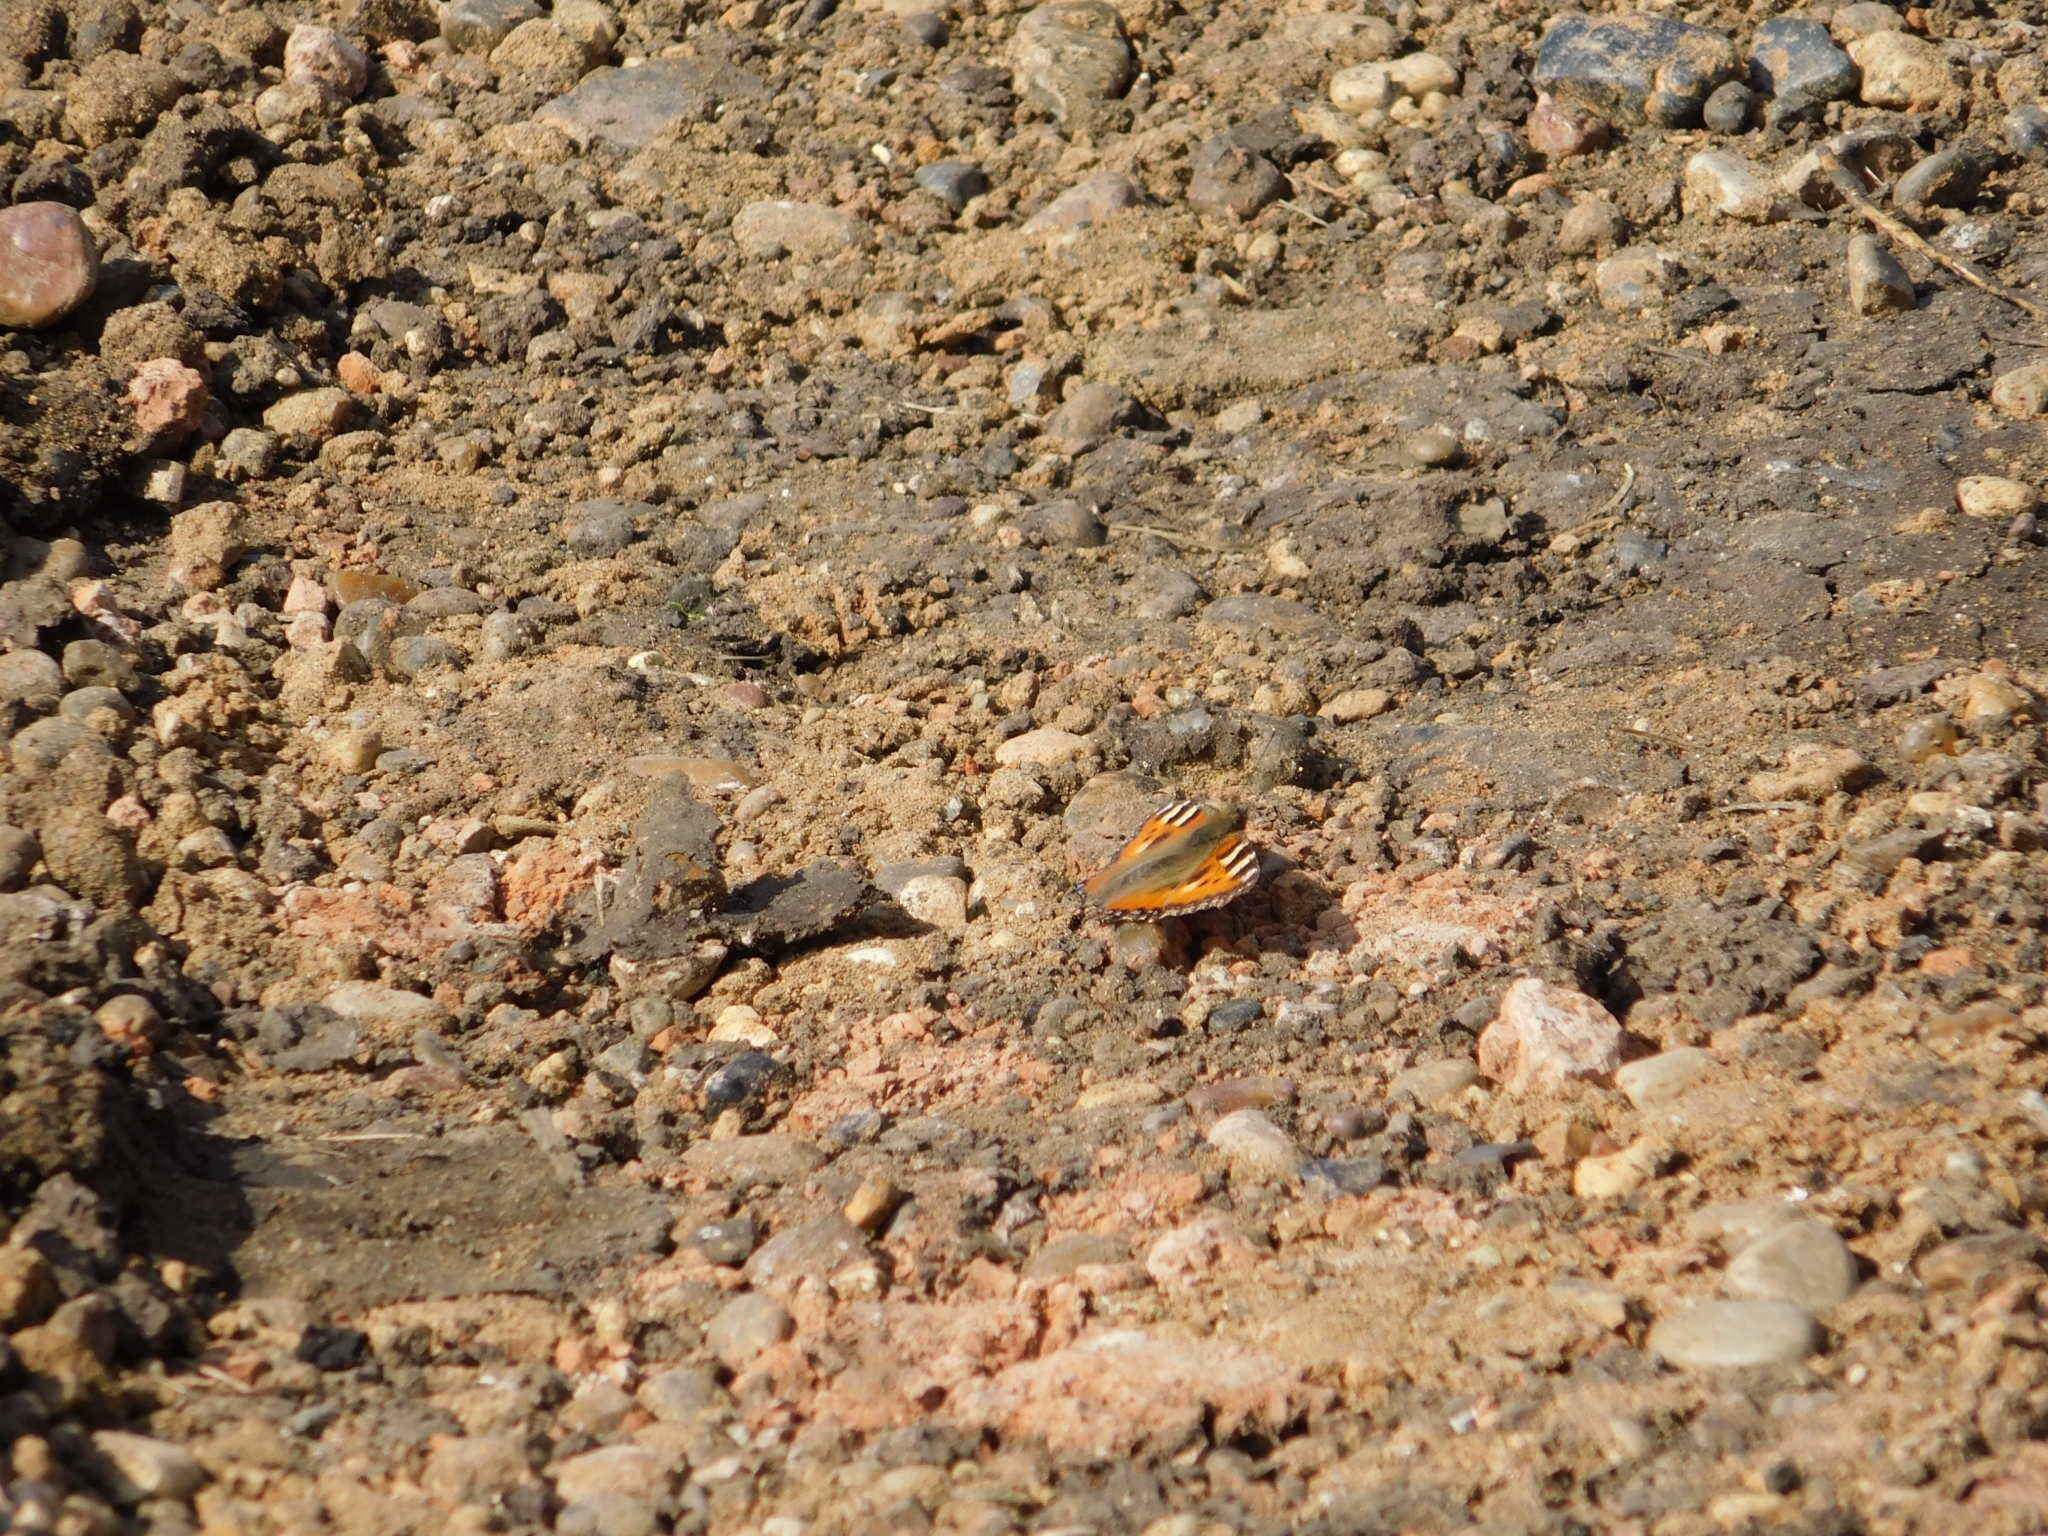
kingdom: Animalia
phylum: Arthropoda
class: Insecta
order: Lepidoptera
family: Nymphalidae
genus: Aglais
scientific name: Aglais urticae
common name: Small tortoiseshell
